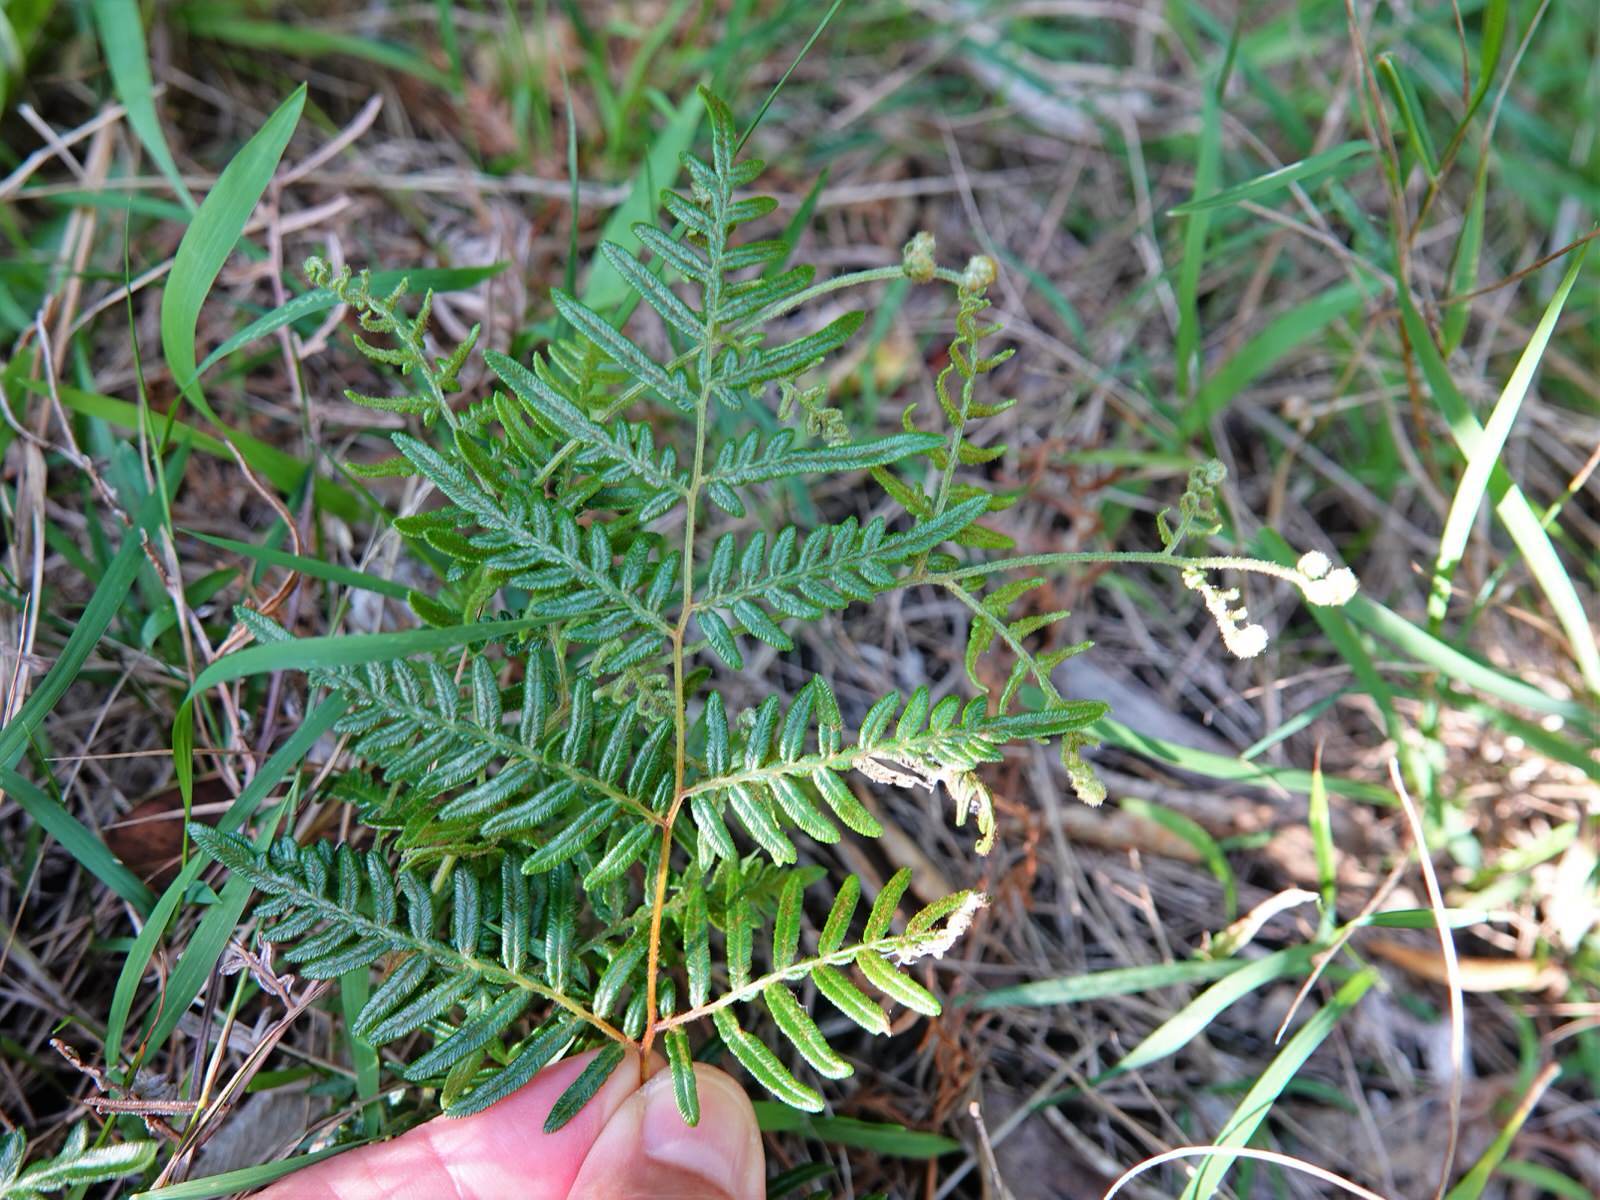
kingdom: Plantae
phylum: Tracheophyta
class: Polypodiopsida
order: Polypodiales
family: Dennstaedtiaceae
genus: Pteridium
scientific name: Pteridium esculentum
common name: Bracken fern
